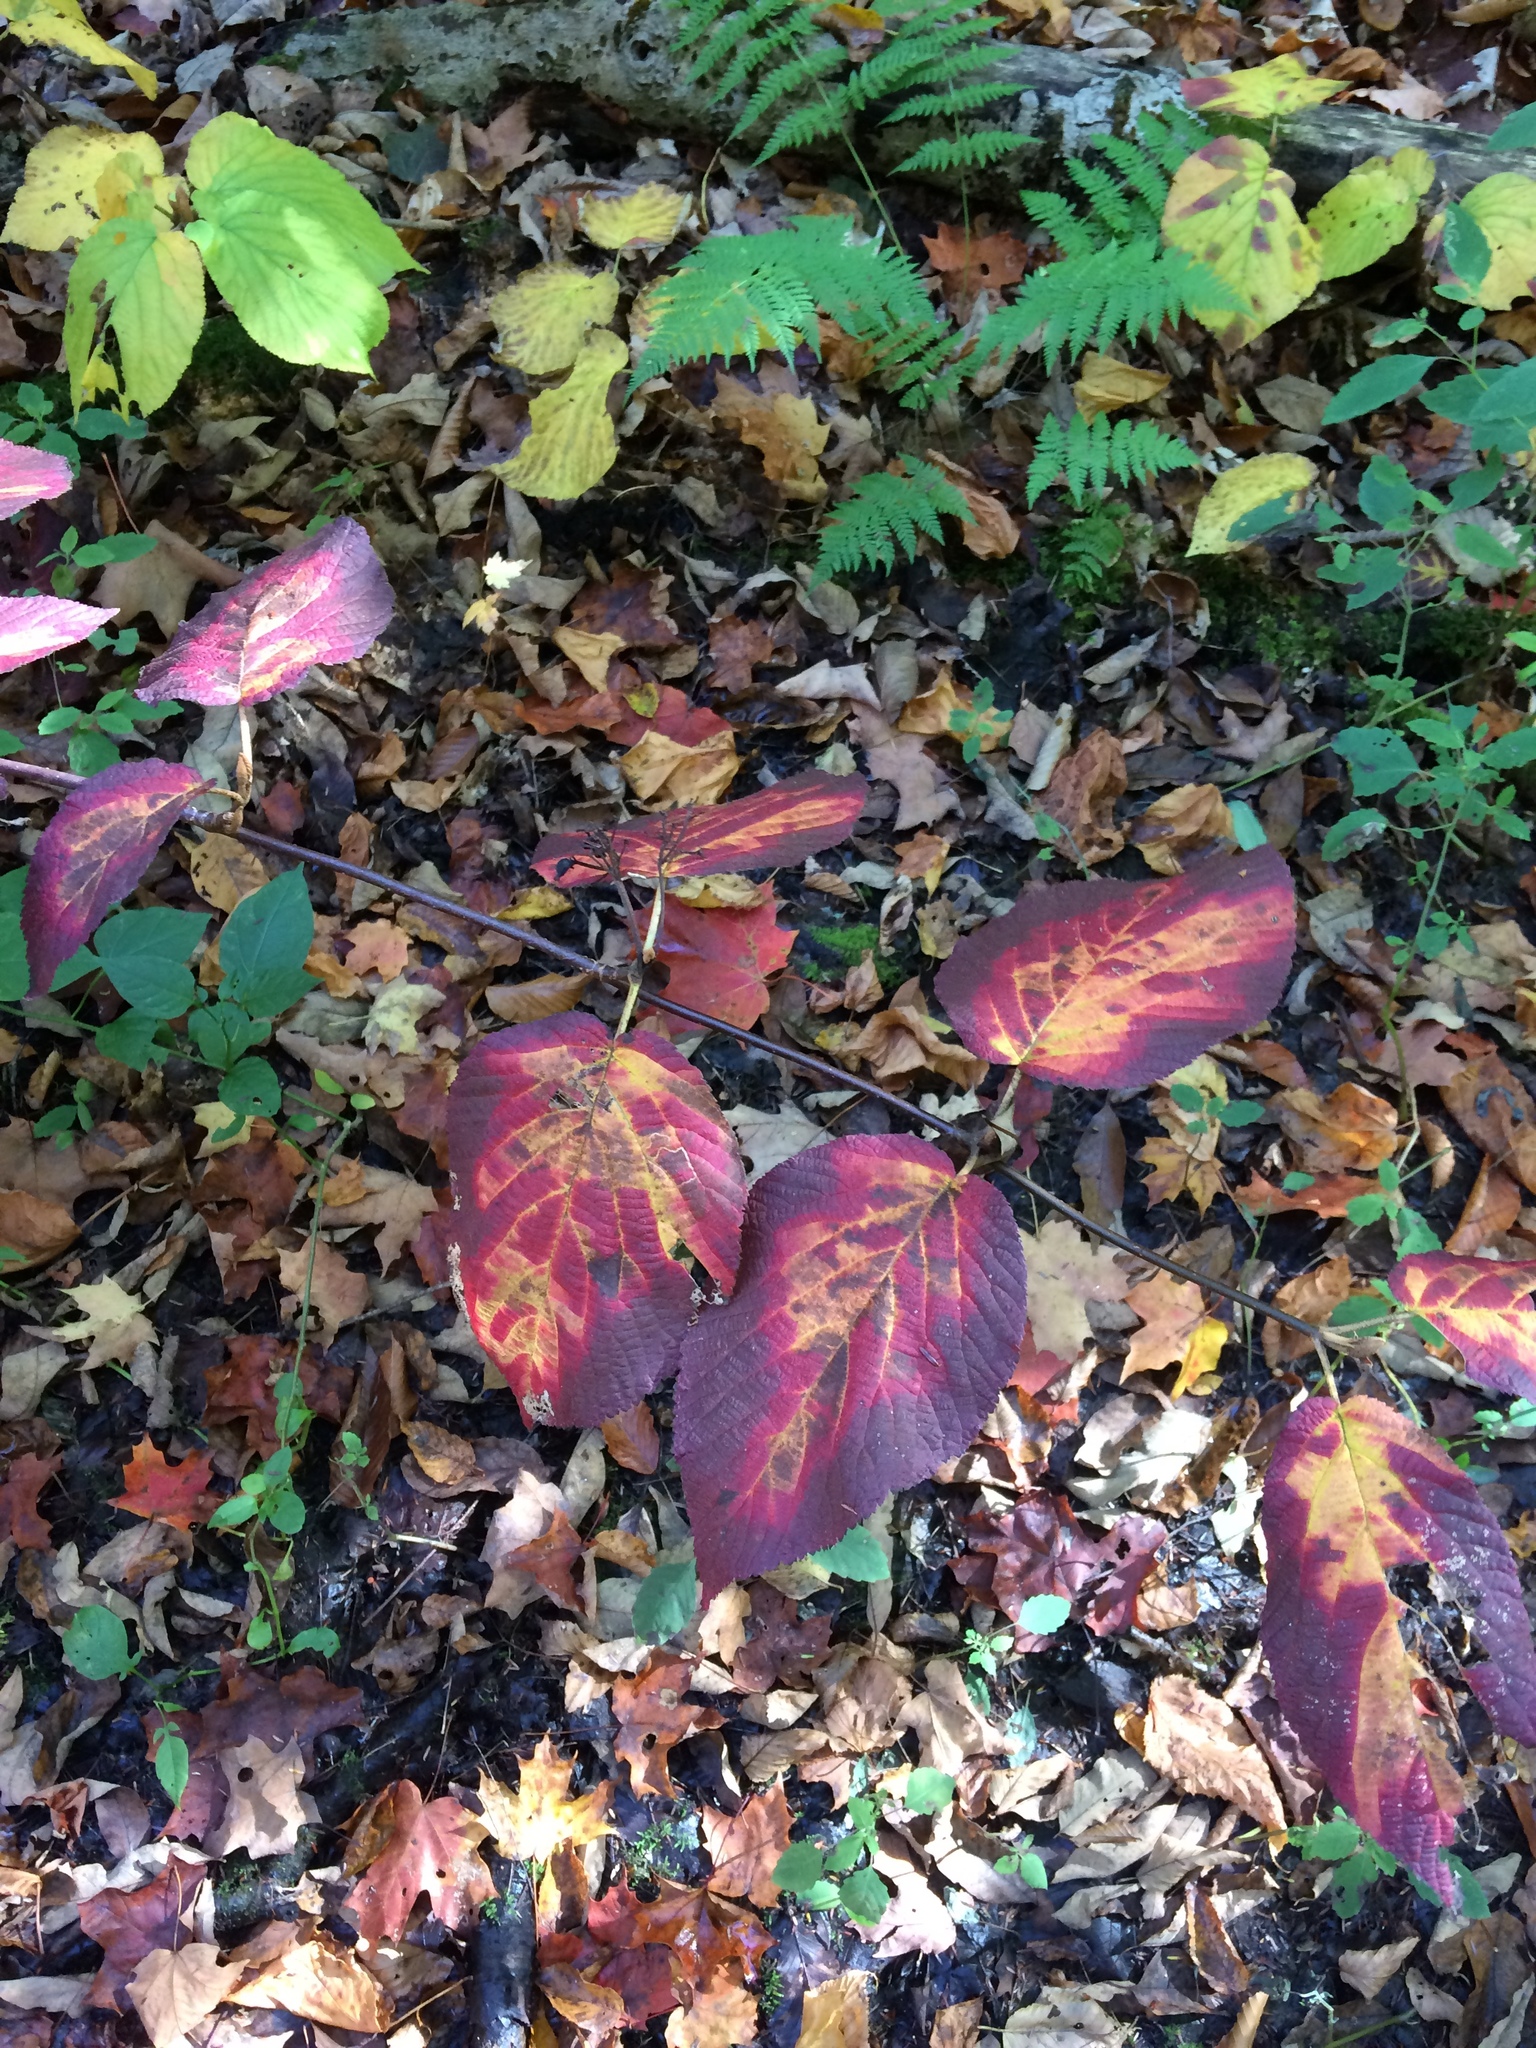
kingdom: Plantae
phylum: Tracheophyta
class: Magnoliopsida
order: Dipsacales
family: Viburnaceae
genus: Viburnum
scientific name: Viburnum lantanoides
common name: Hobblebush
